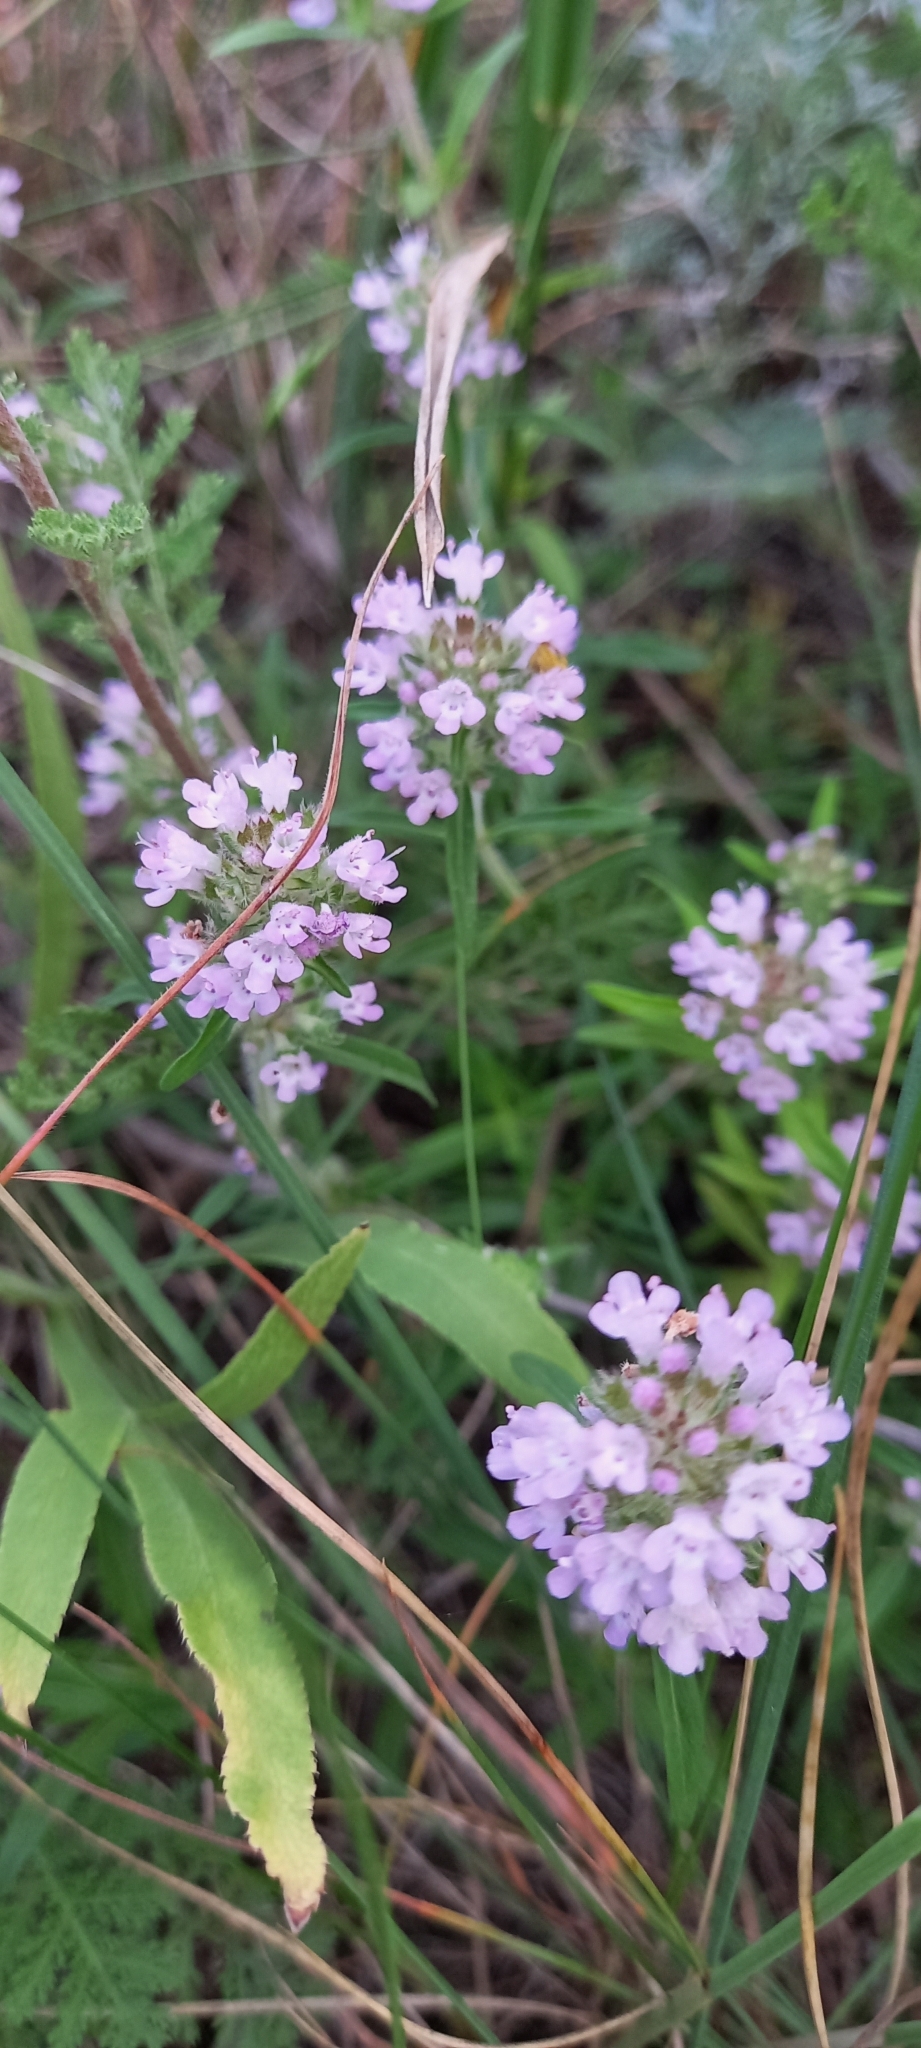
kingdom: Plantae
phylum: Tracheophyta
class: Magnoliopsida
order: Lamiales
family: Lamiaceae
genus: Thymus
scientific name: Thymus pannonicus
